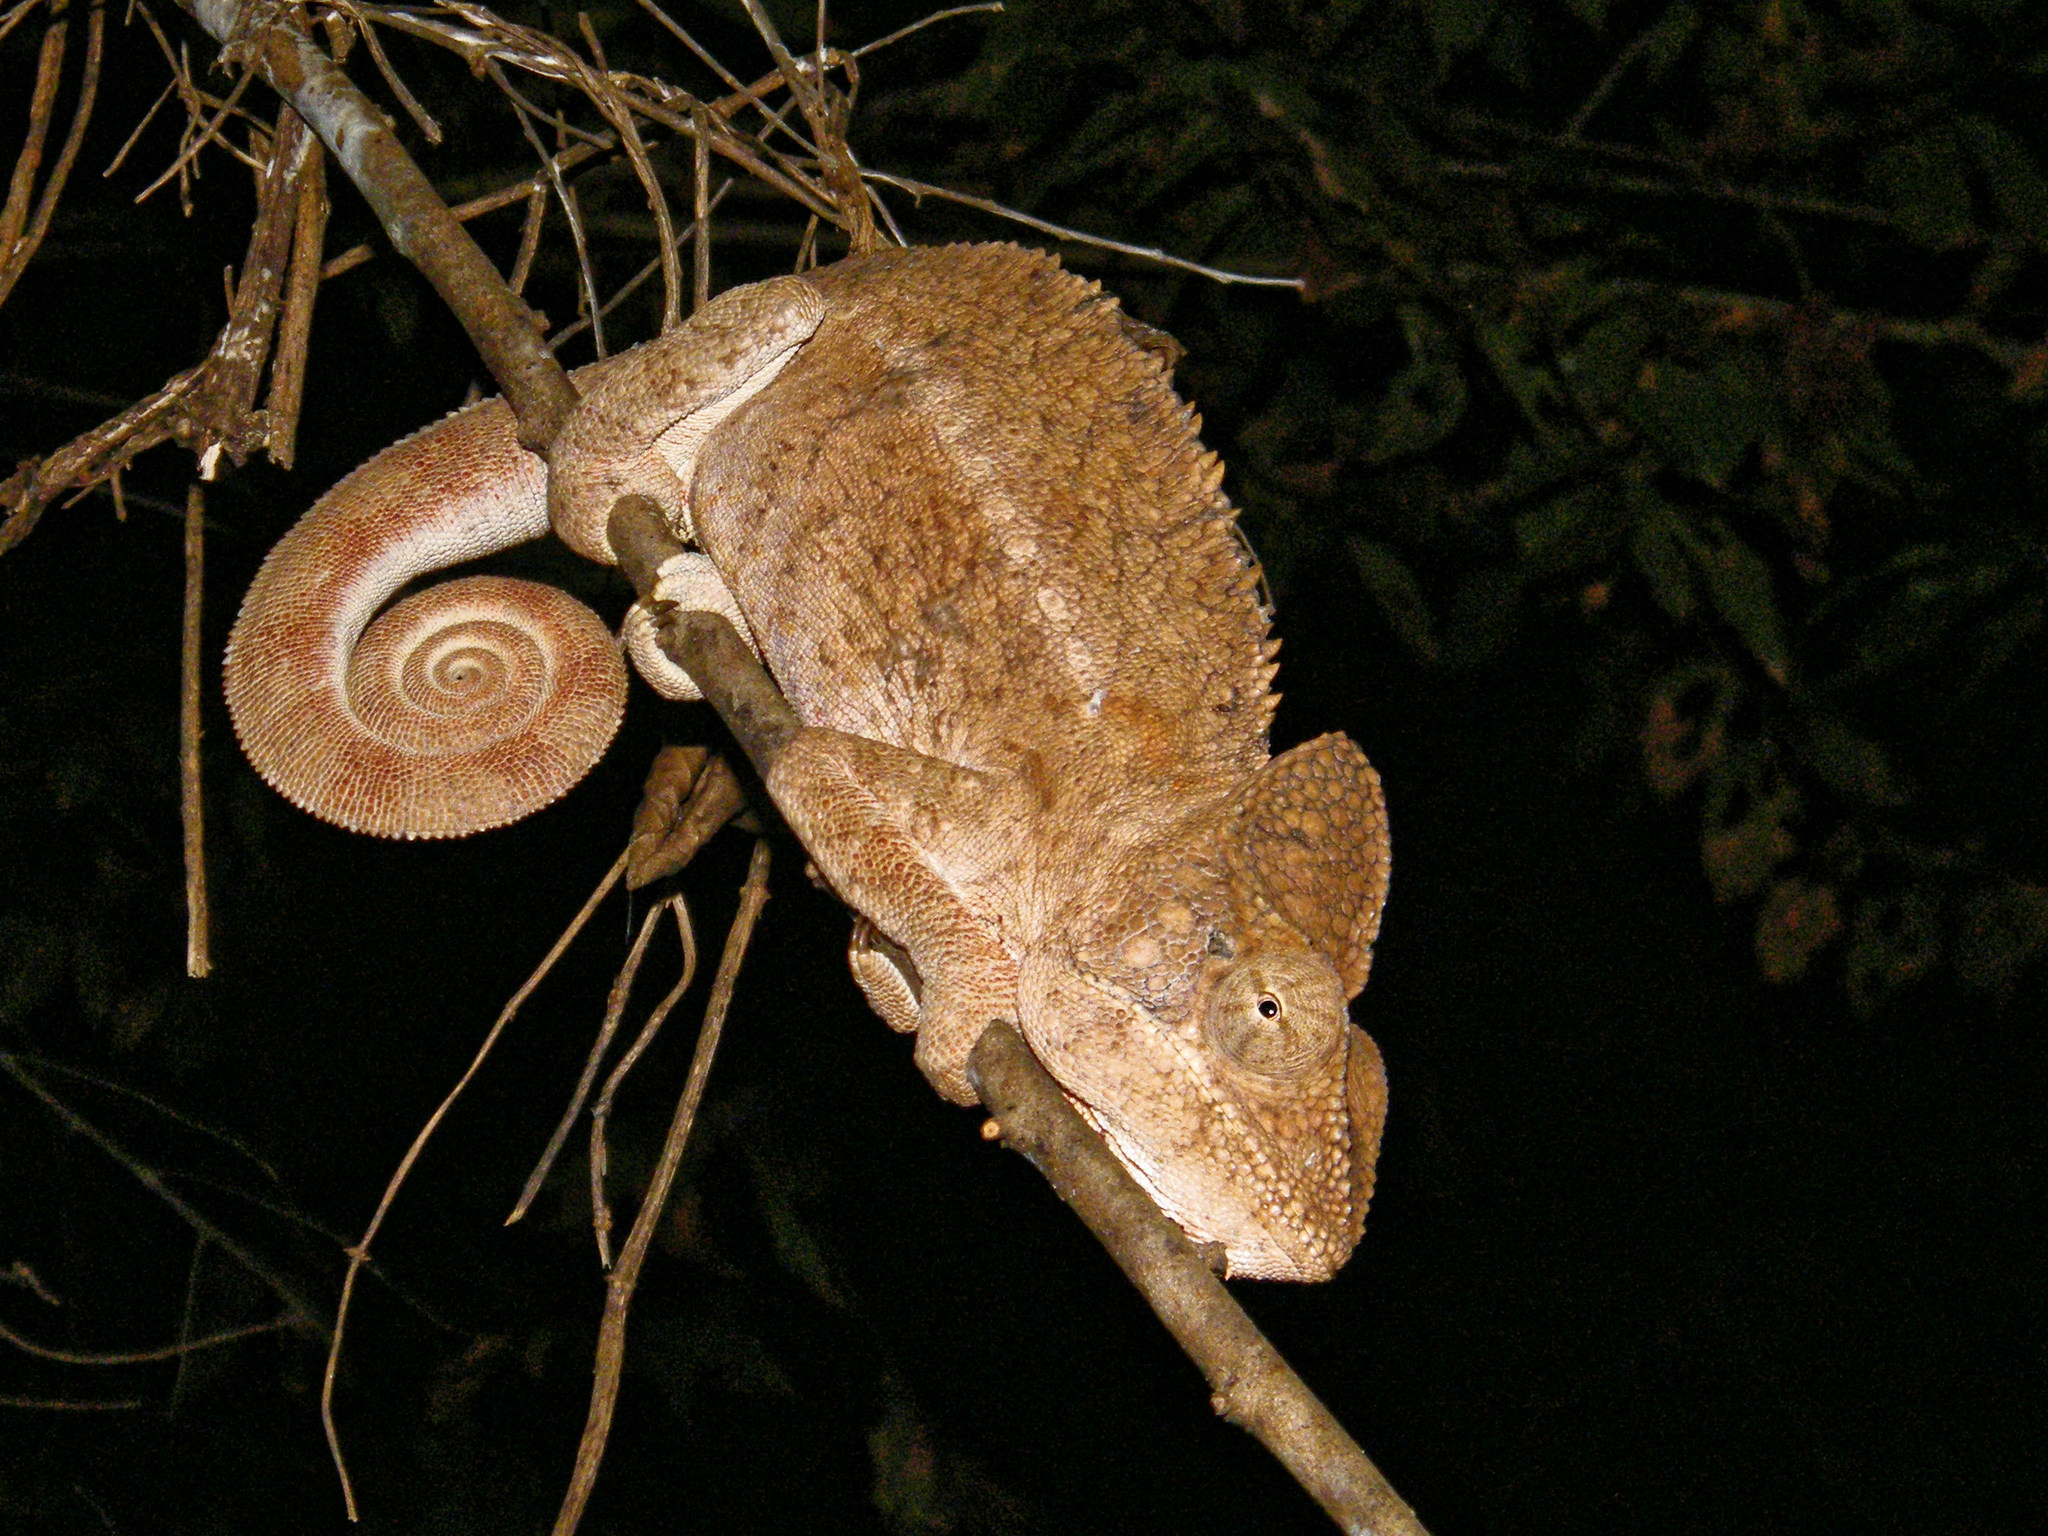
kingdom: Animalia
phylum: Chordata
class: Squamata
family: Chamaeleonidae
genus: Furcifer
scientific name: Furcifer oustaleti
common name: Oustalet's chameleon
